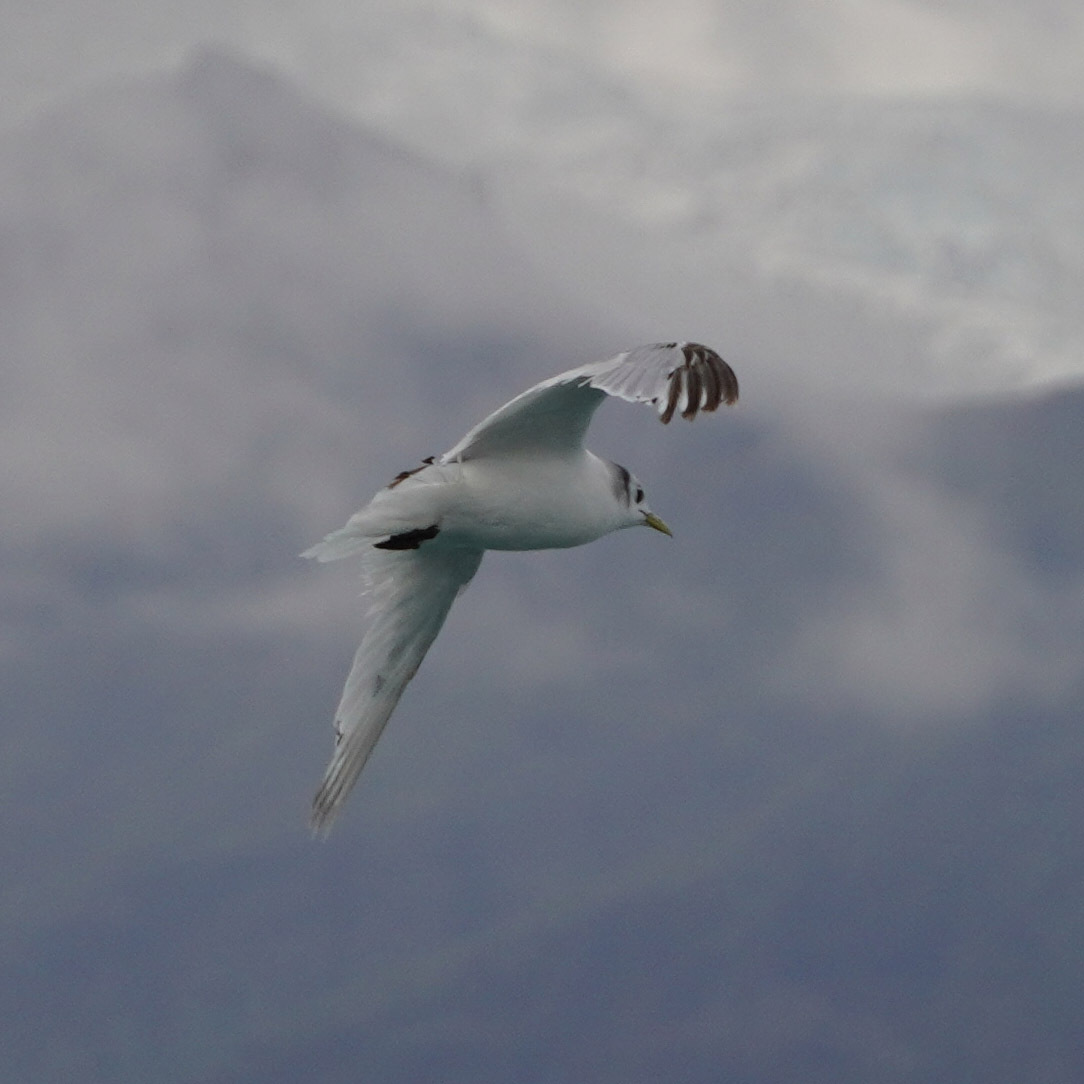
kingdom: Animalia
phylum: Chordata
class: Aves
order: Charadriiformes
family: Laridae
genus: Rissa
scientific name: Rissa tridactyla
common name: Black-legged kittiwake
